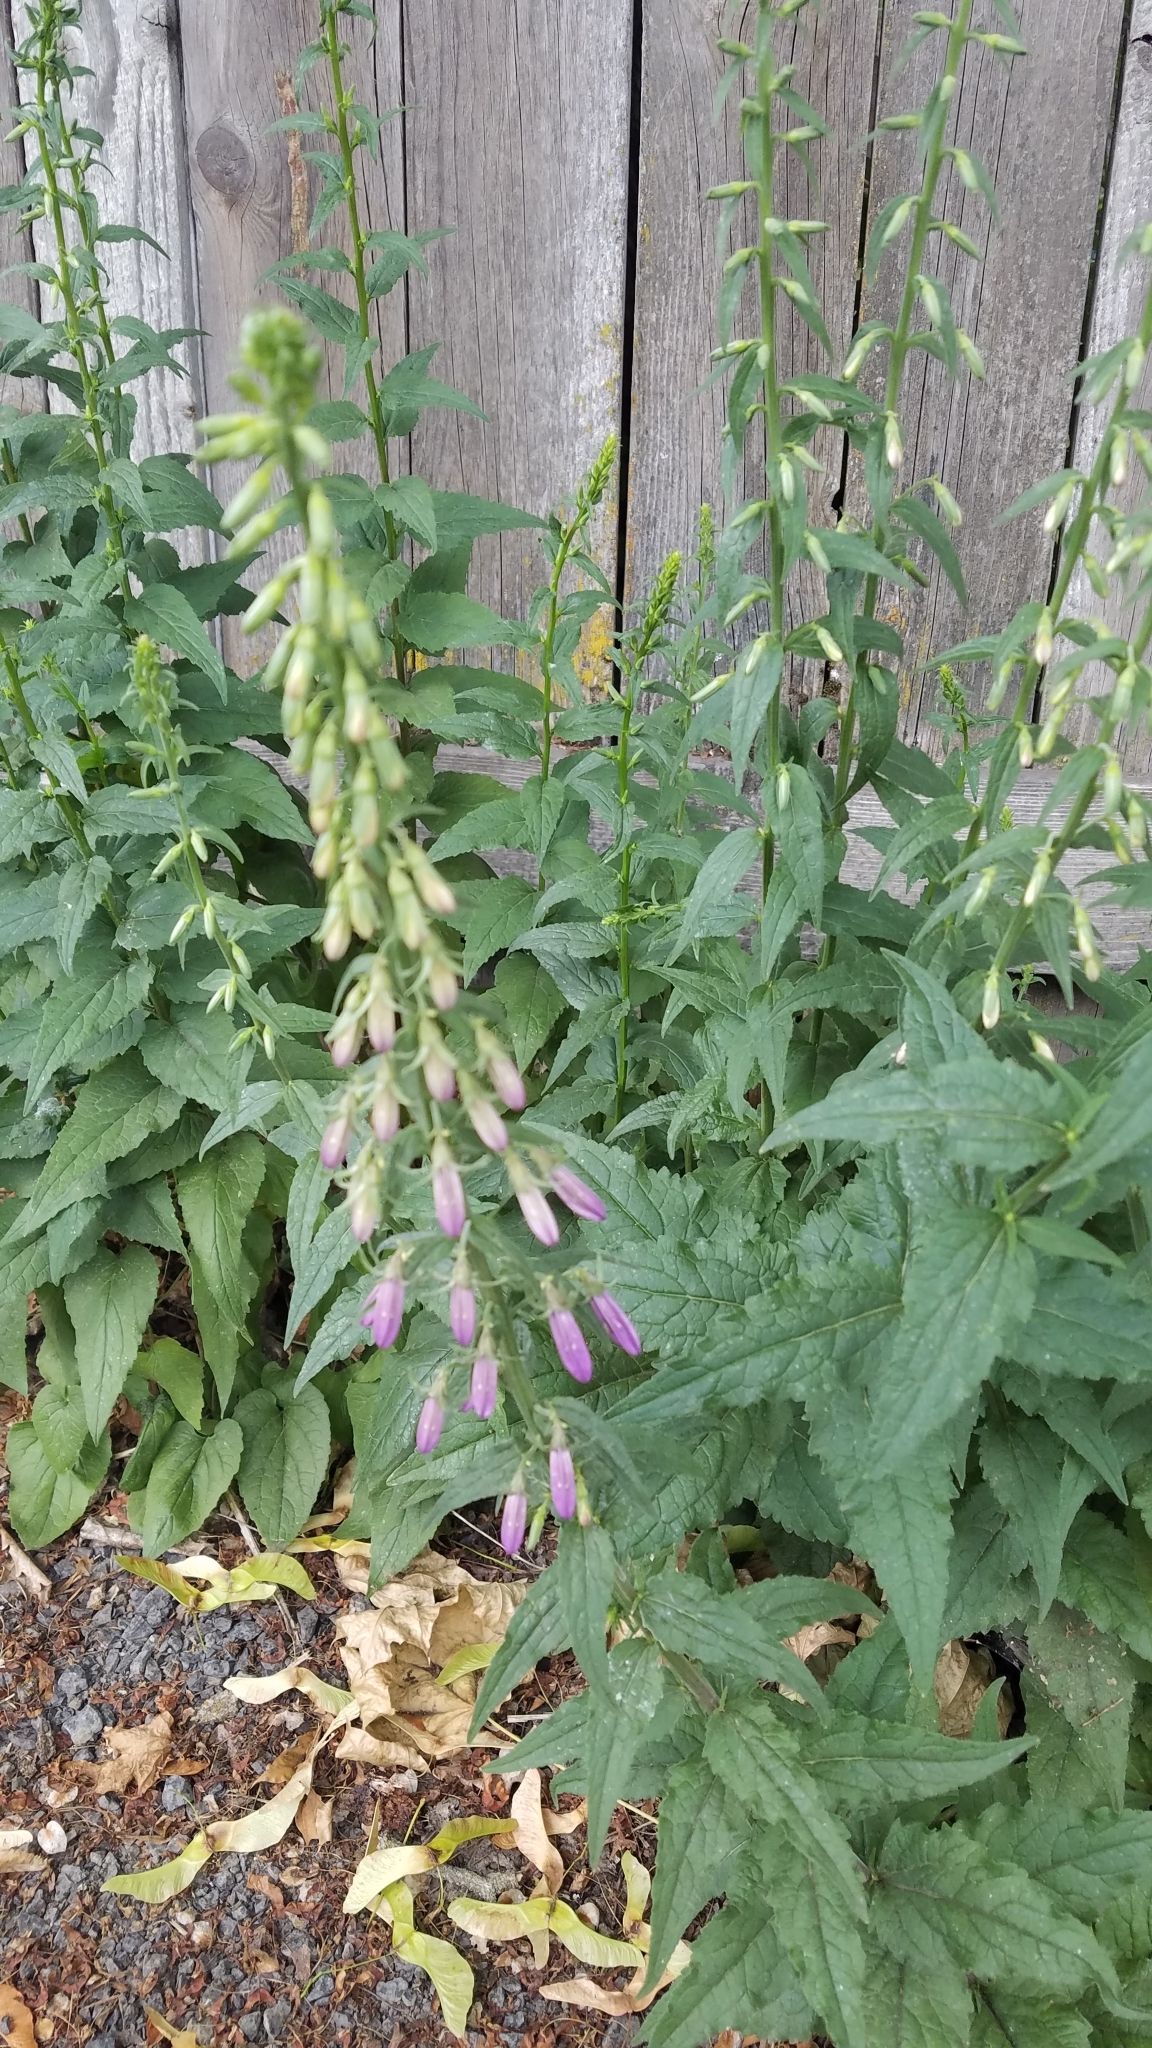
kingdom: Plantae
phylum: Tracheophyta
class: Magnoliopsida
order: Asterales
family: Campanulaceae
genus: Campanula
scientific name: Campanula rapunculoides
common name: Creeping bellflower
